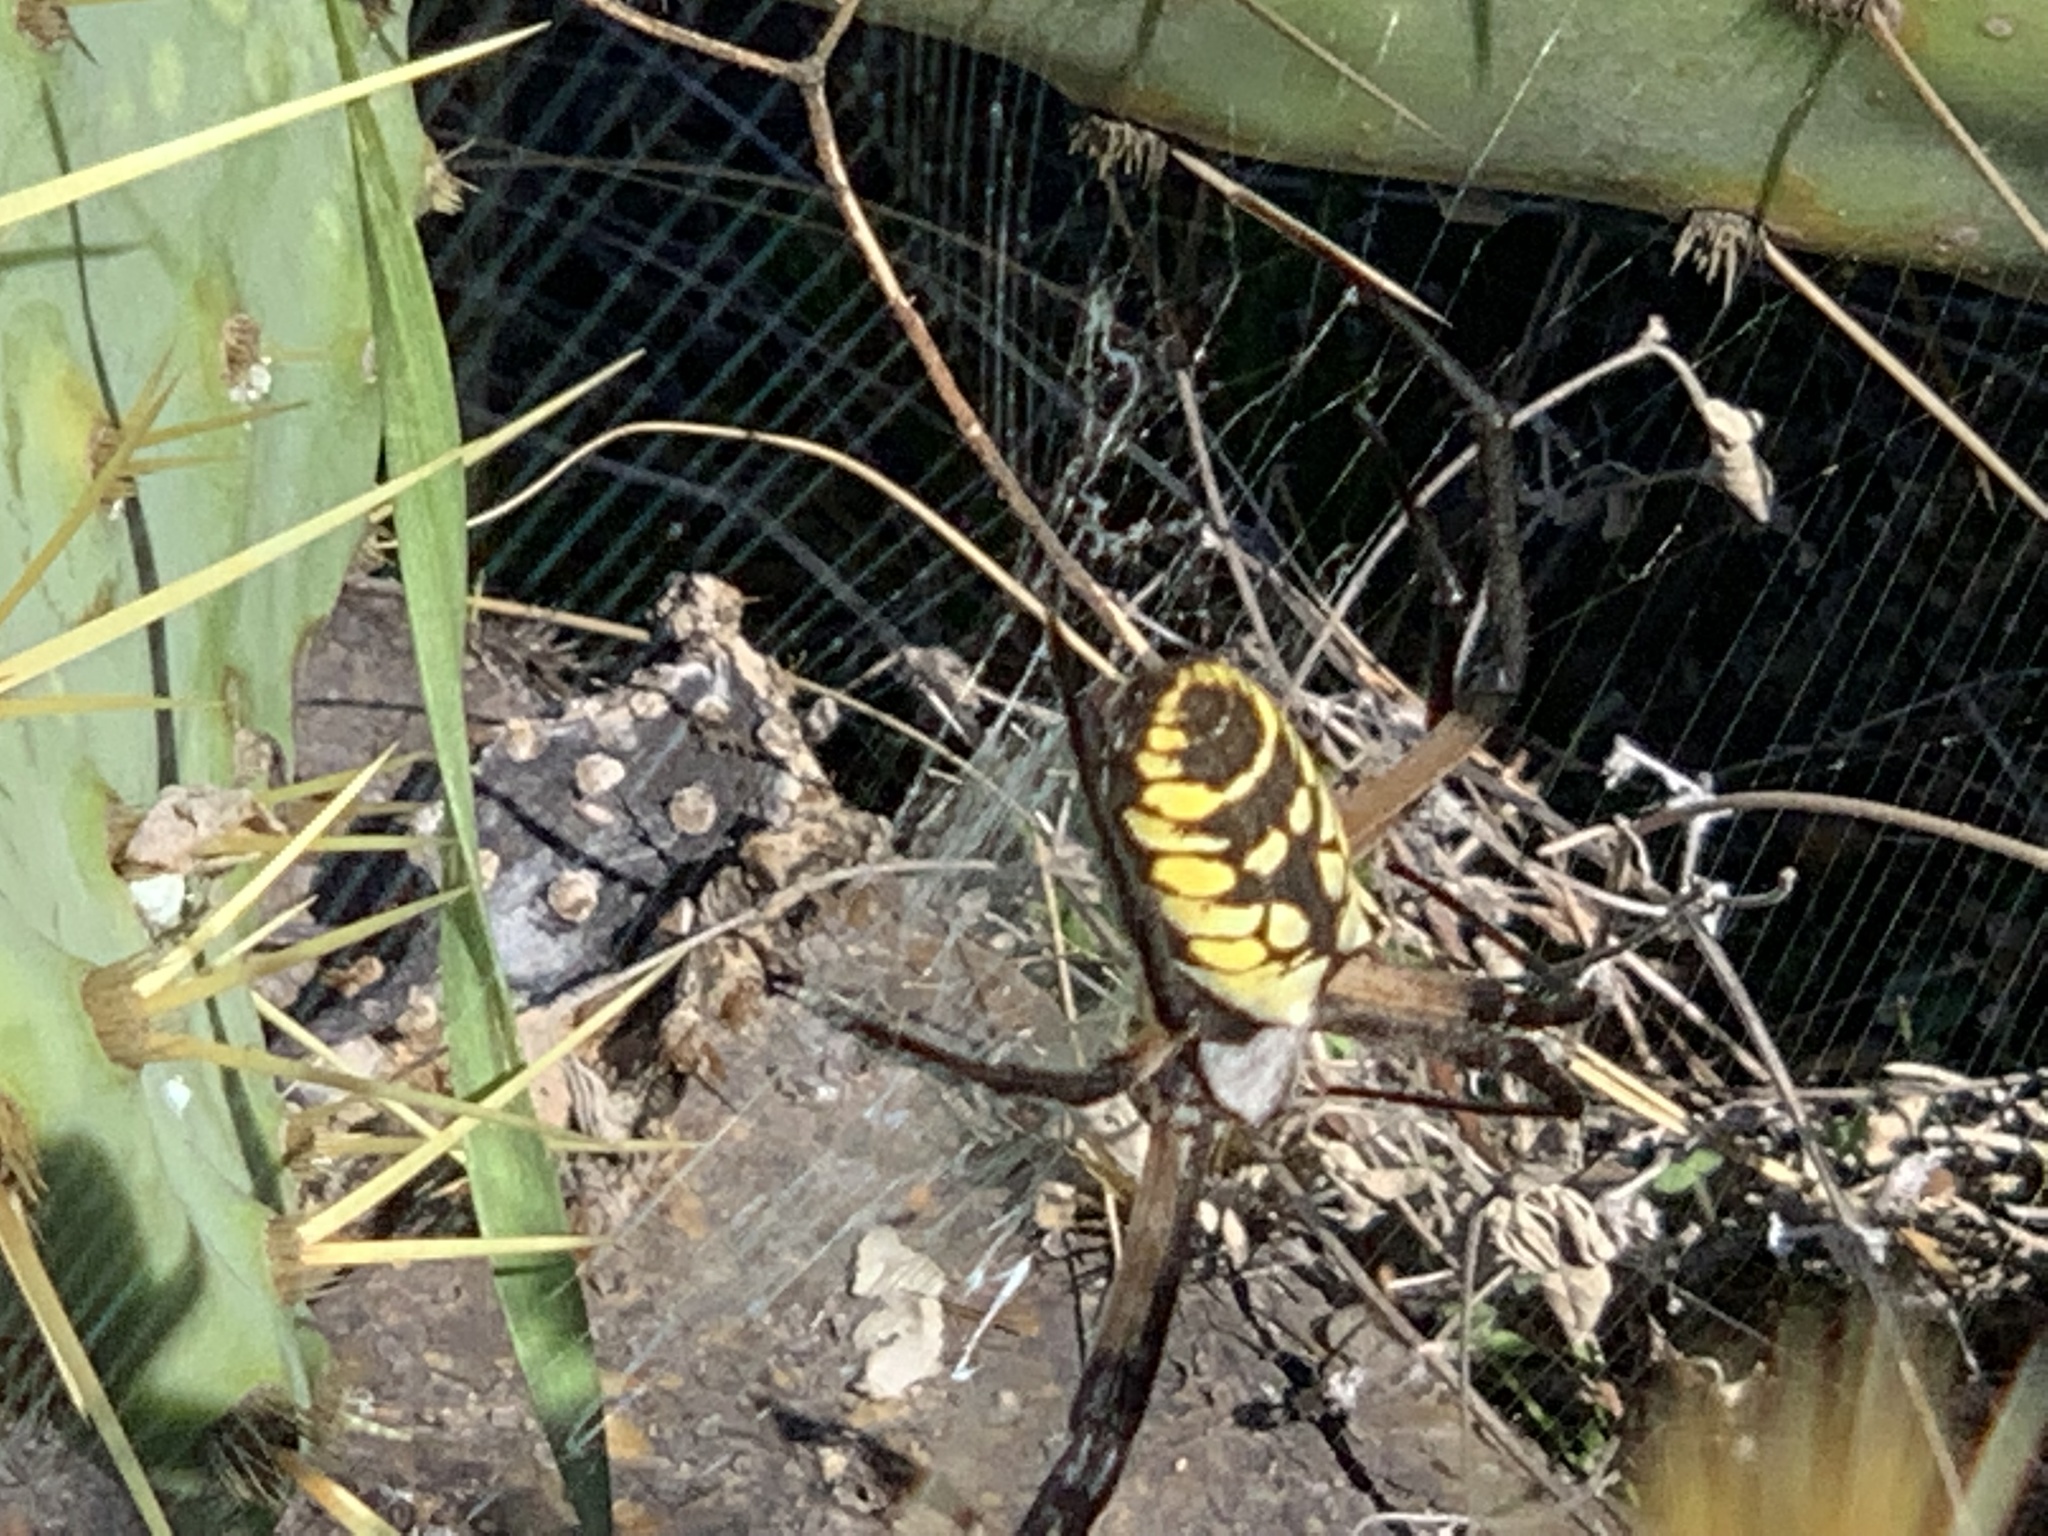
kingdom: Animalia
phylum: Arthropoda
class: Arachnida
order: Araneae
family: Araneidae
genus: Argiope
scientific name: Argiope aurantia
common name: Orb weavers
